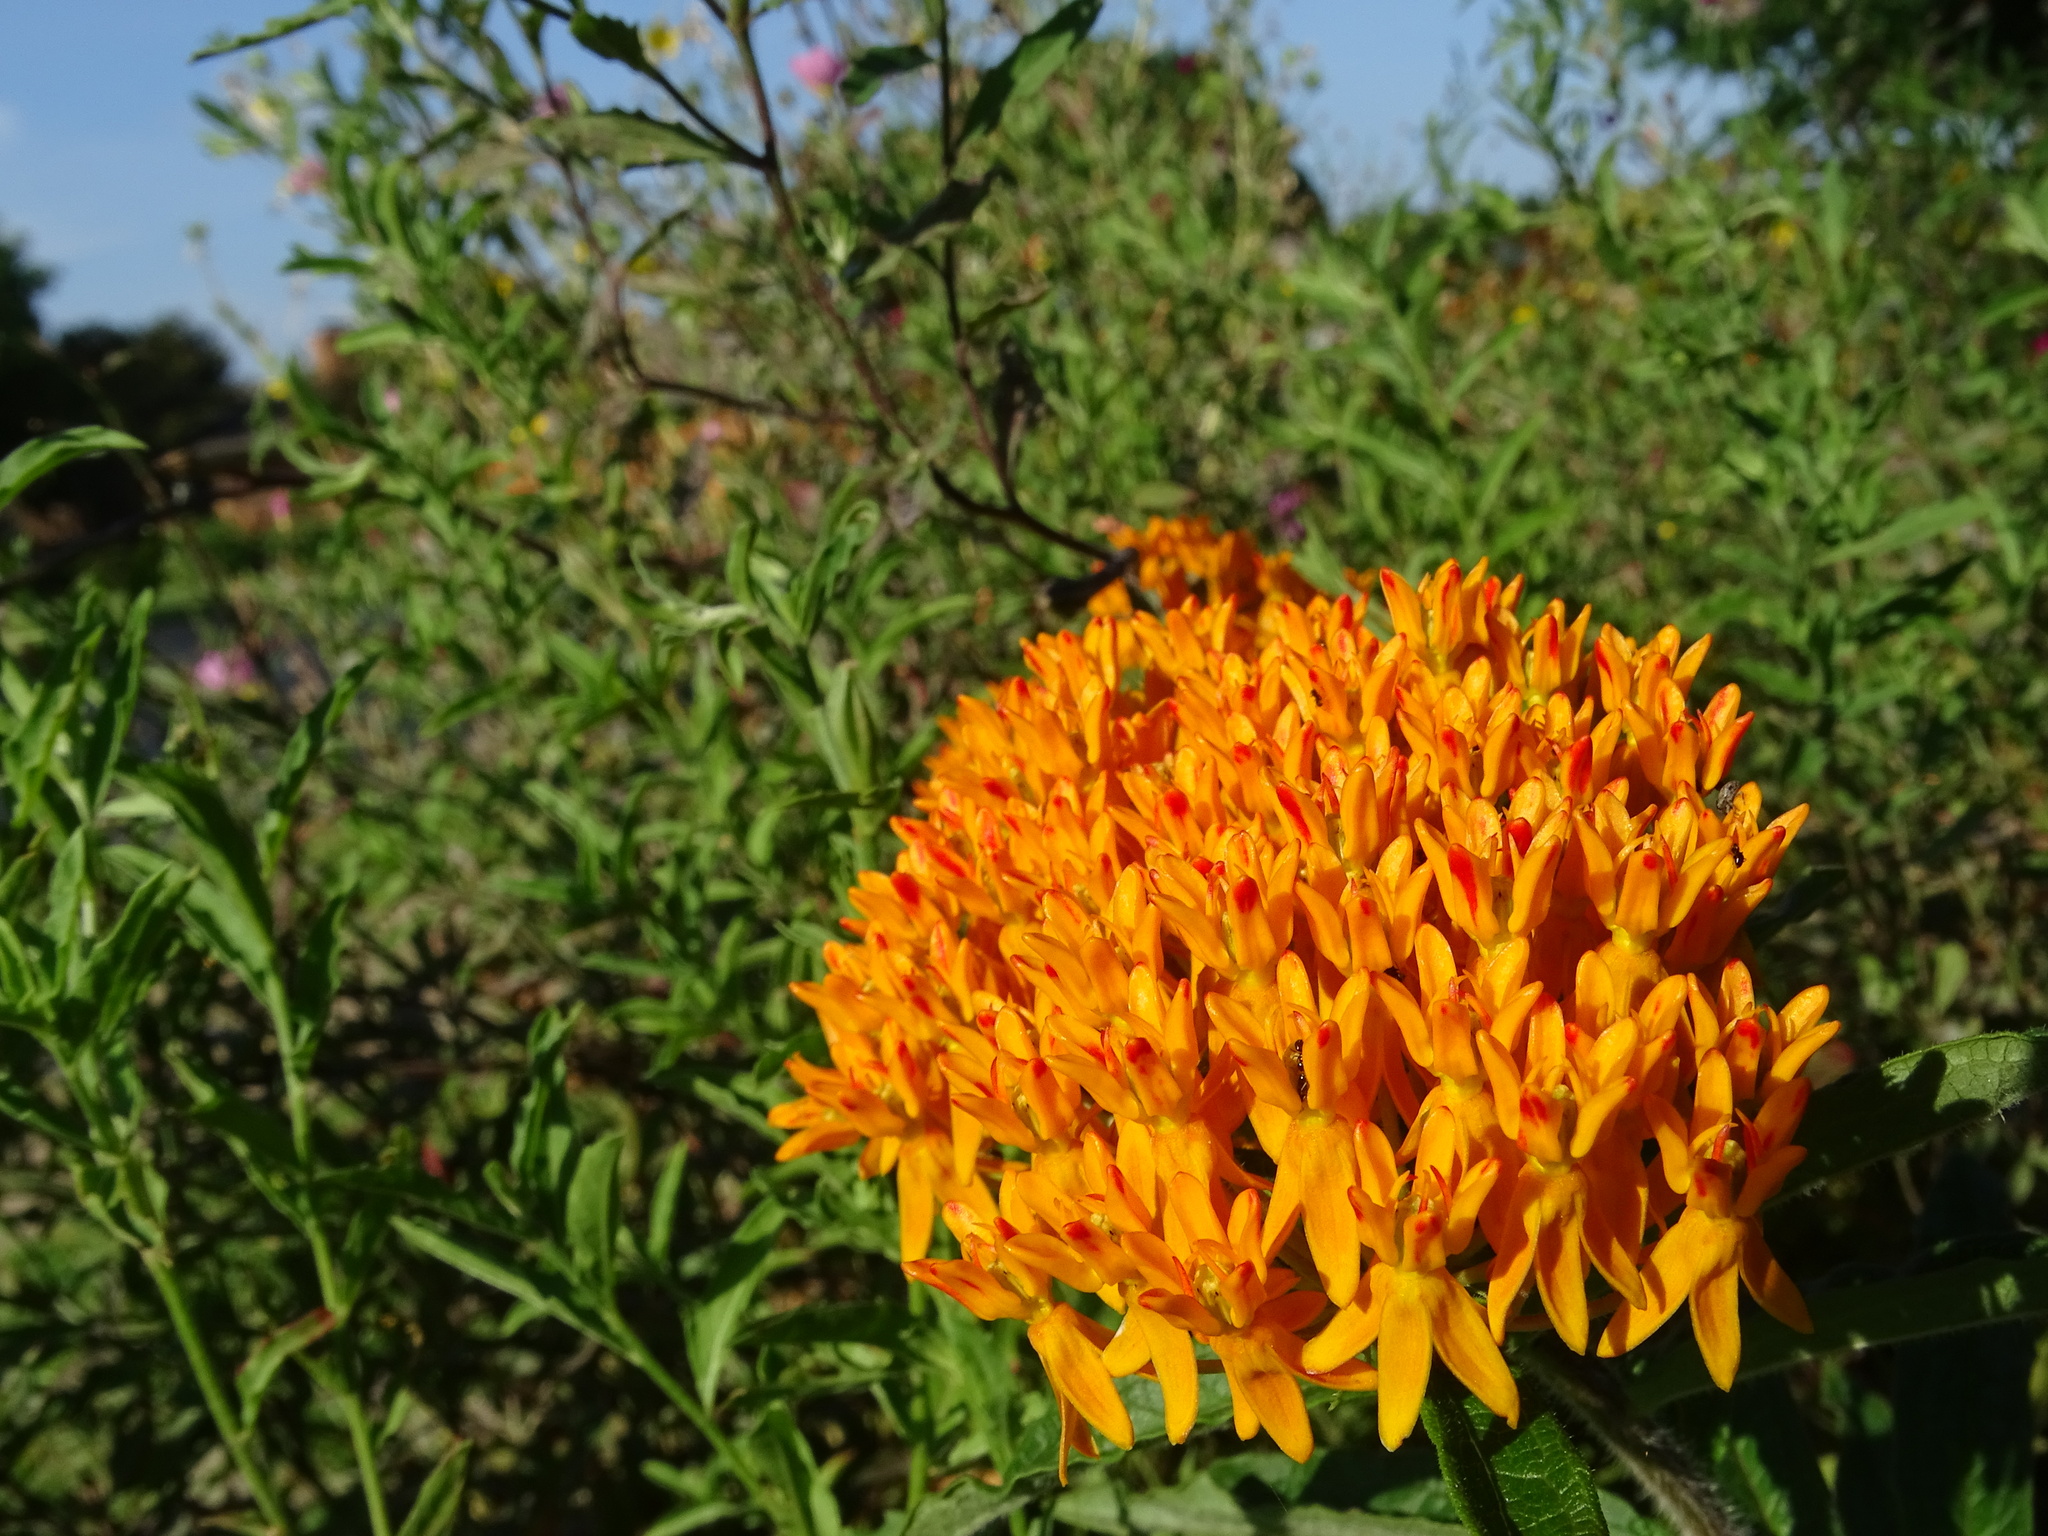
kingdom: Plantae
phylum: Tracheophyta
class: Magnoliopsida
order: Gentianales
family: Apocynaceae
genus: Asclepias
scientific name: Asclepias tuberosa
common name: Butterfly milkweed
